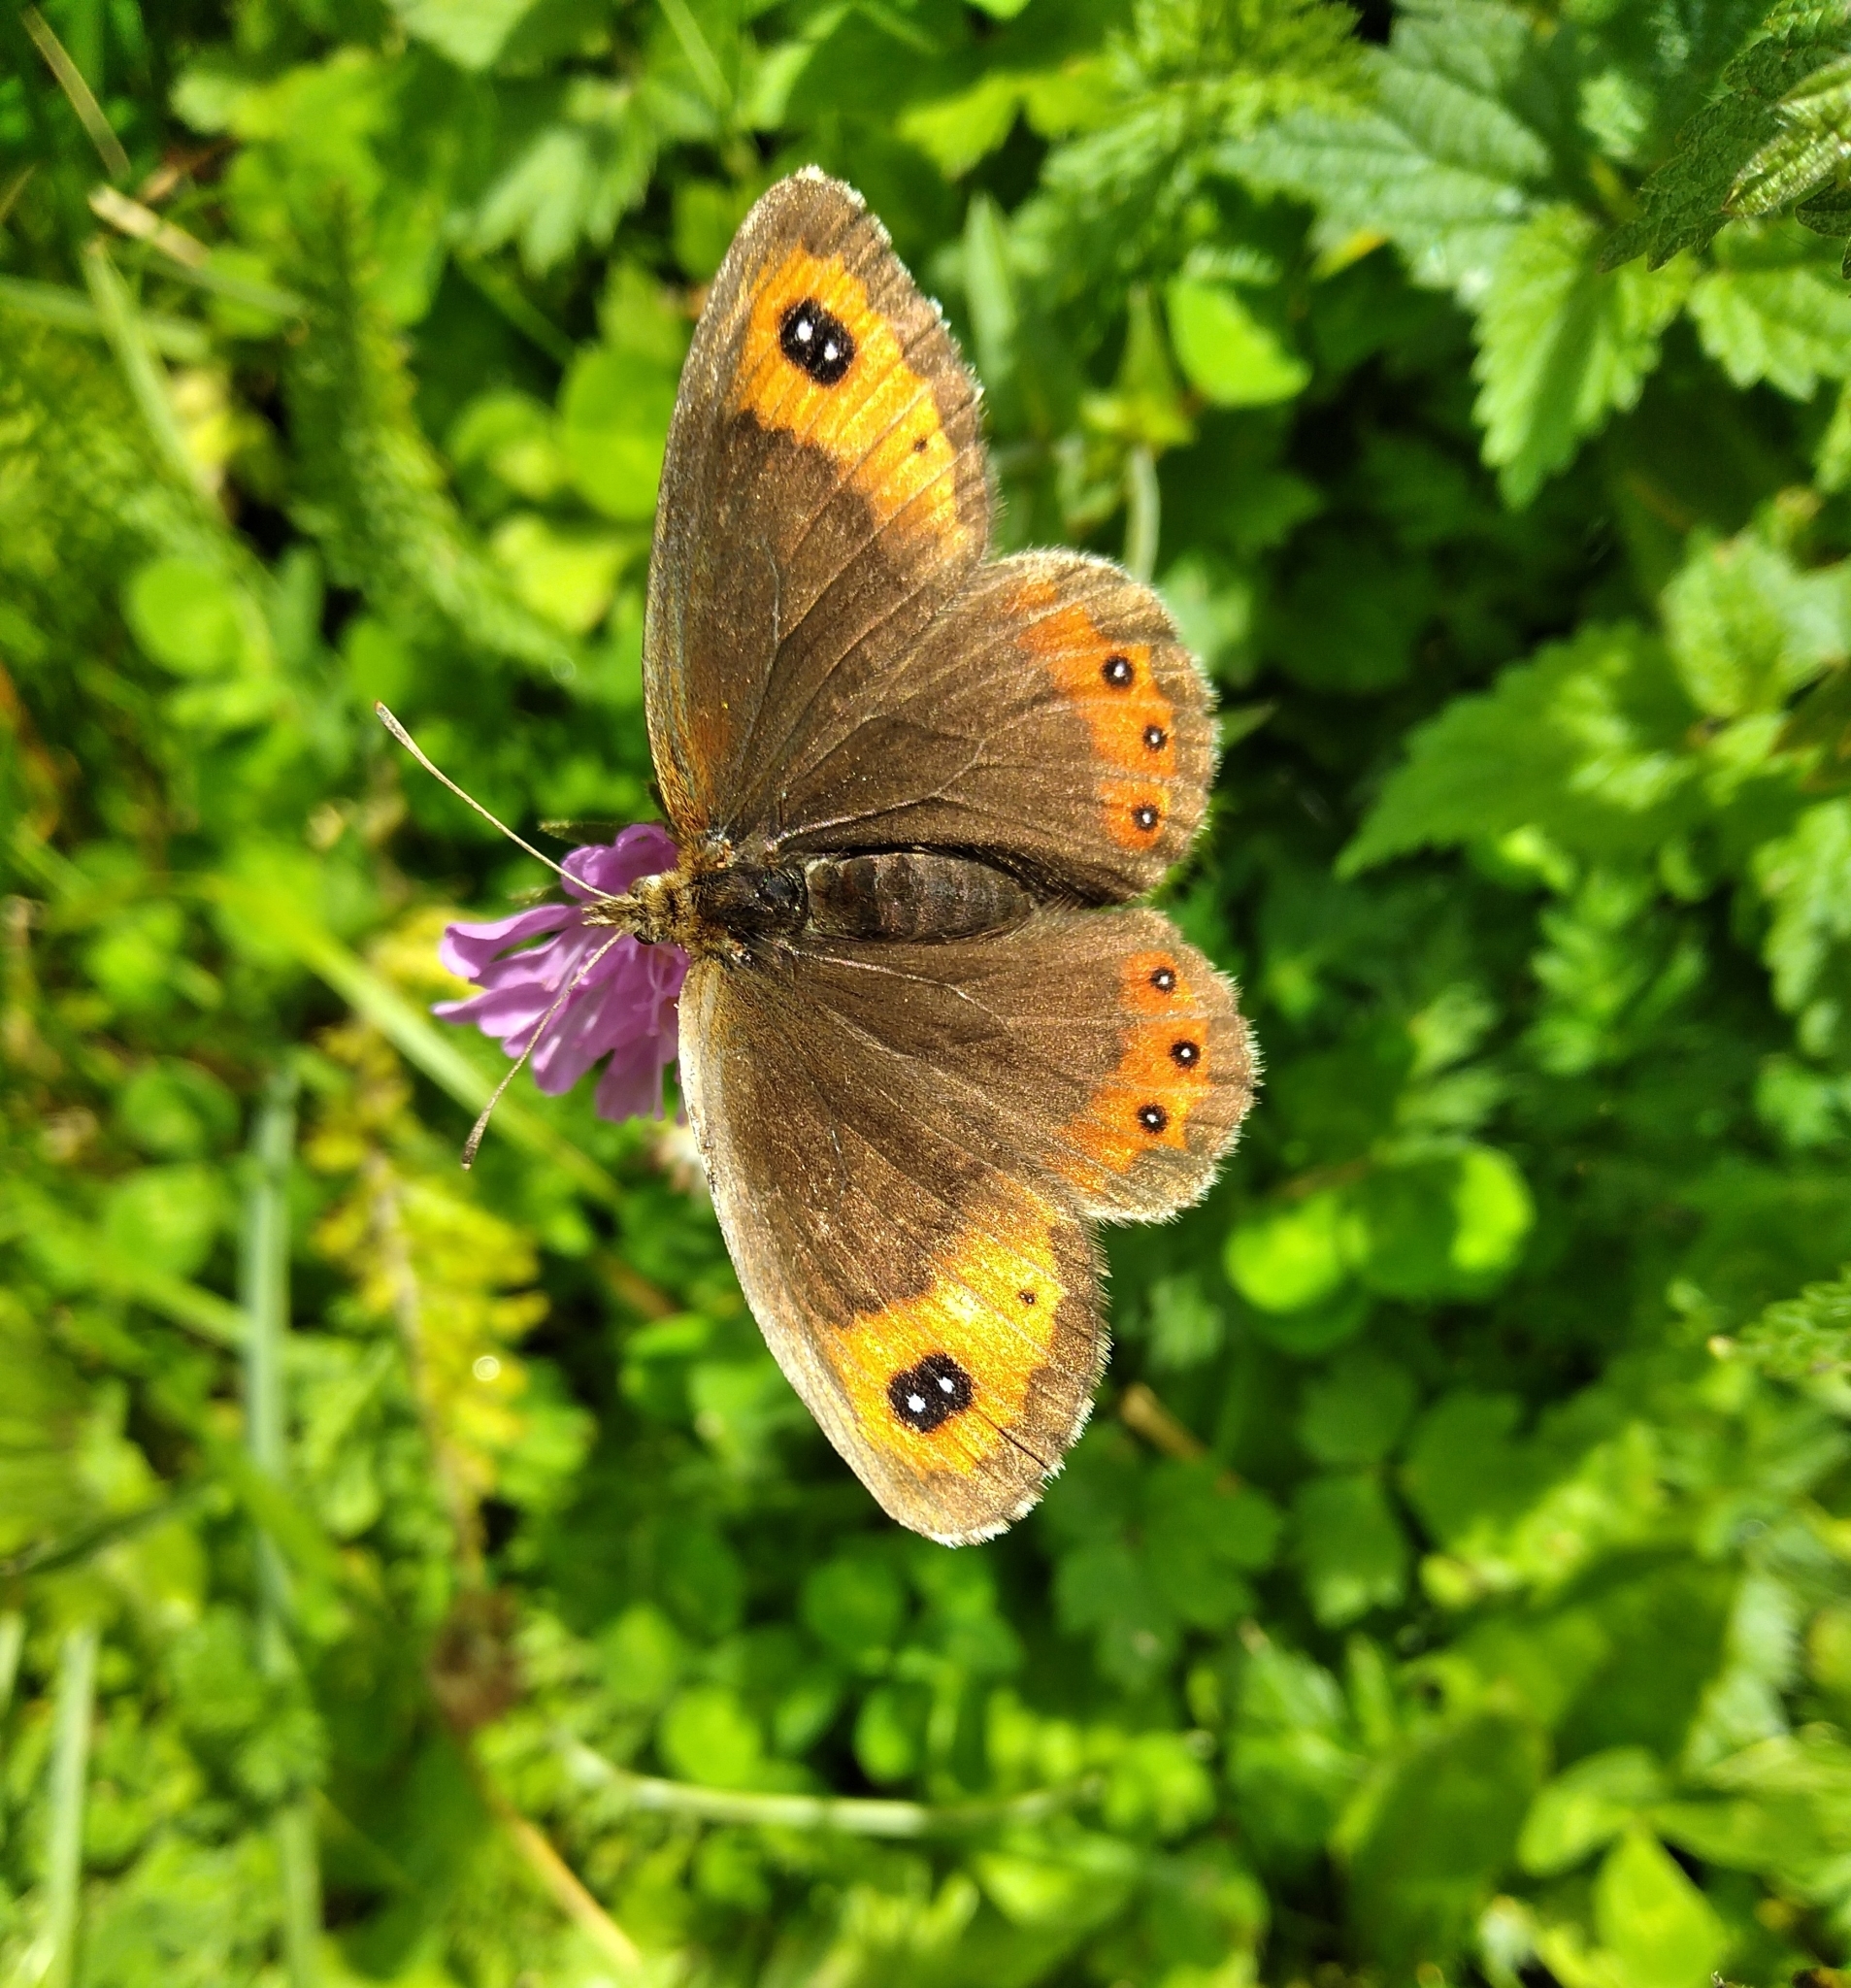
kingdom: Animalia
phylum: Arthropoda
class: Insecta
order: Lepidoptera
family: Nymphalidae
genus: Erebia
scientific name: Erebia montanus
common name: Marbled ringlet
